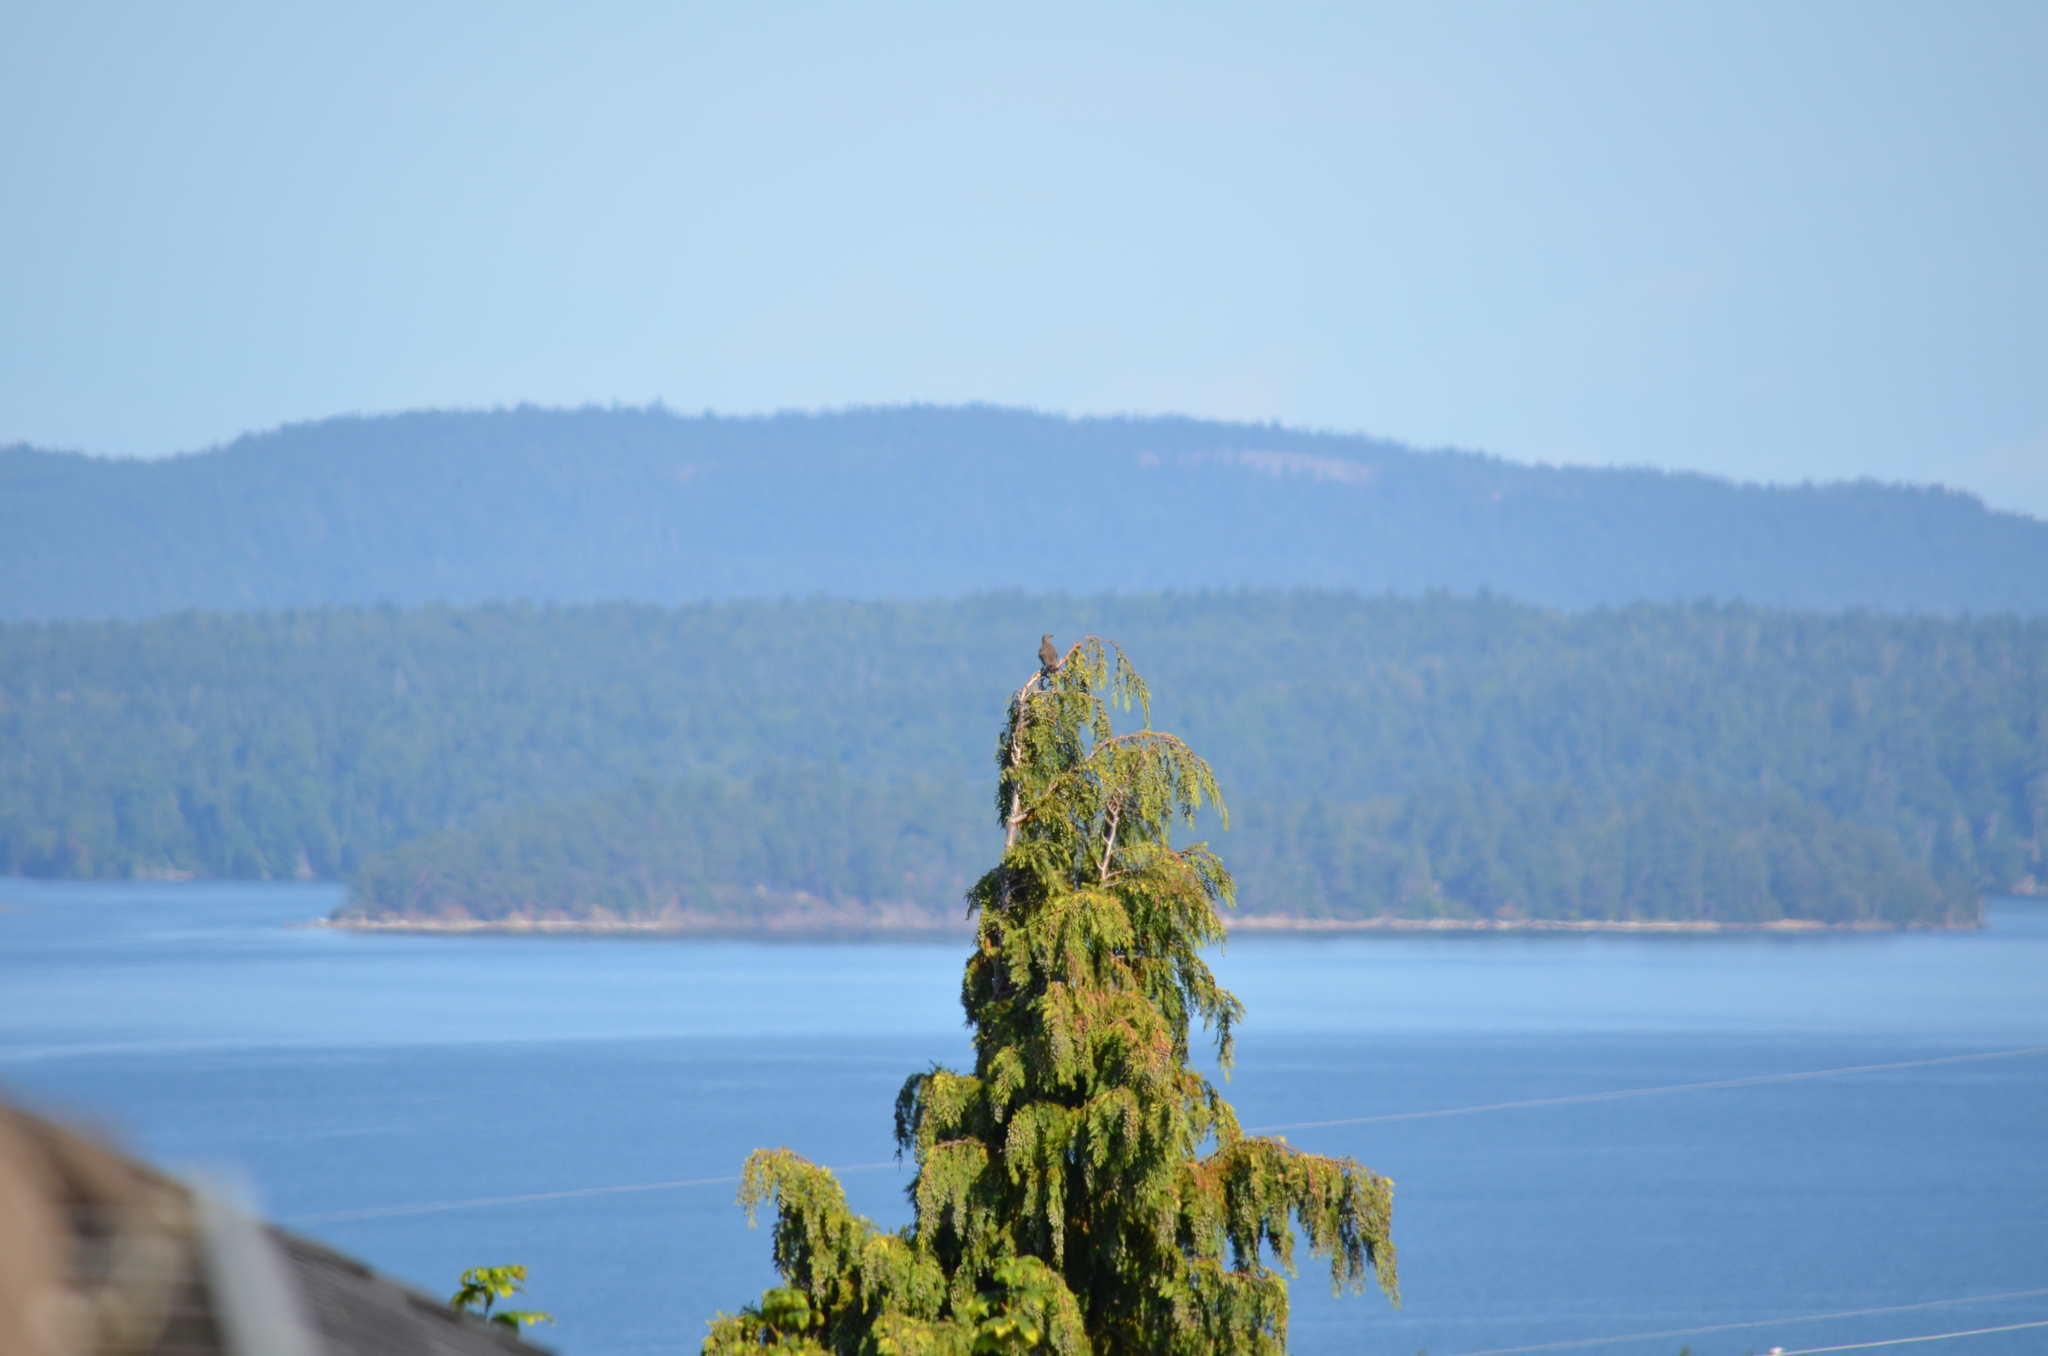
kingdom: Animalia
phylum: Chordata
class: Aves
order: Piciformes
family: Picidae
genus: Colaptes
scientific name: Colaptes auratus
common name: Northern flicker
